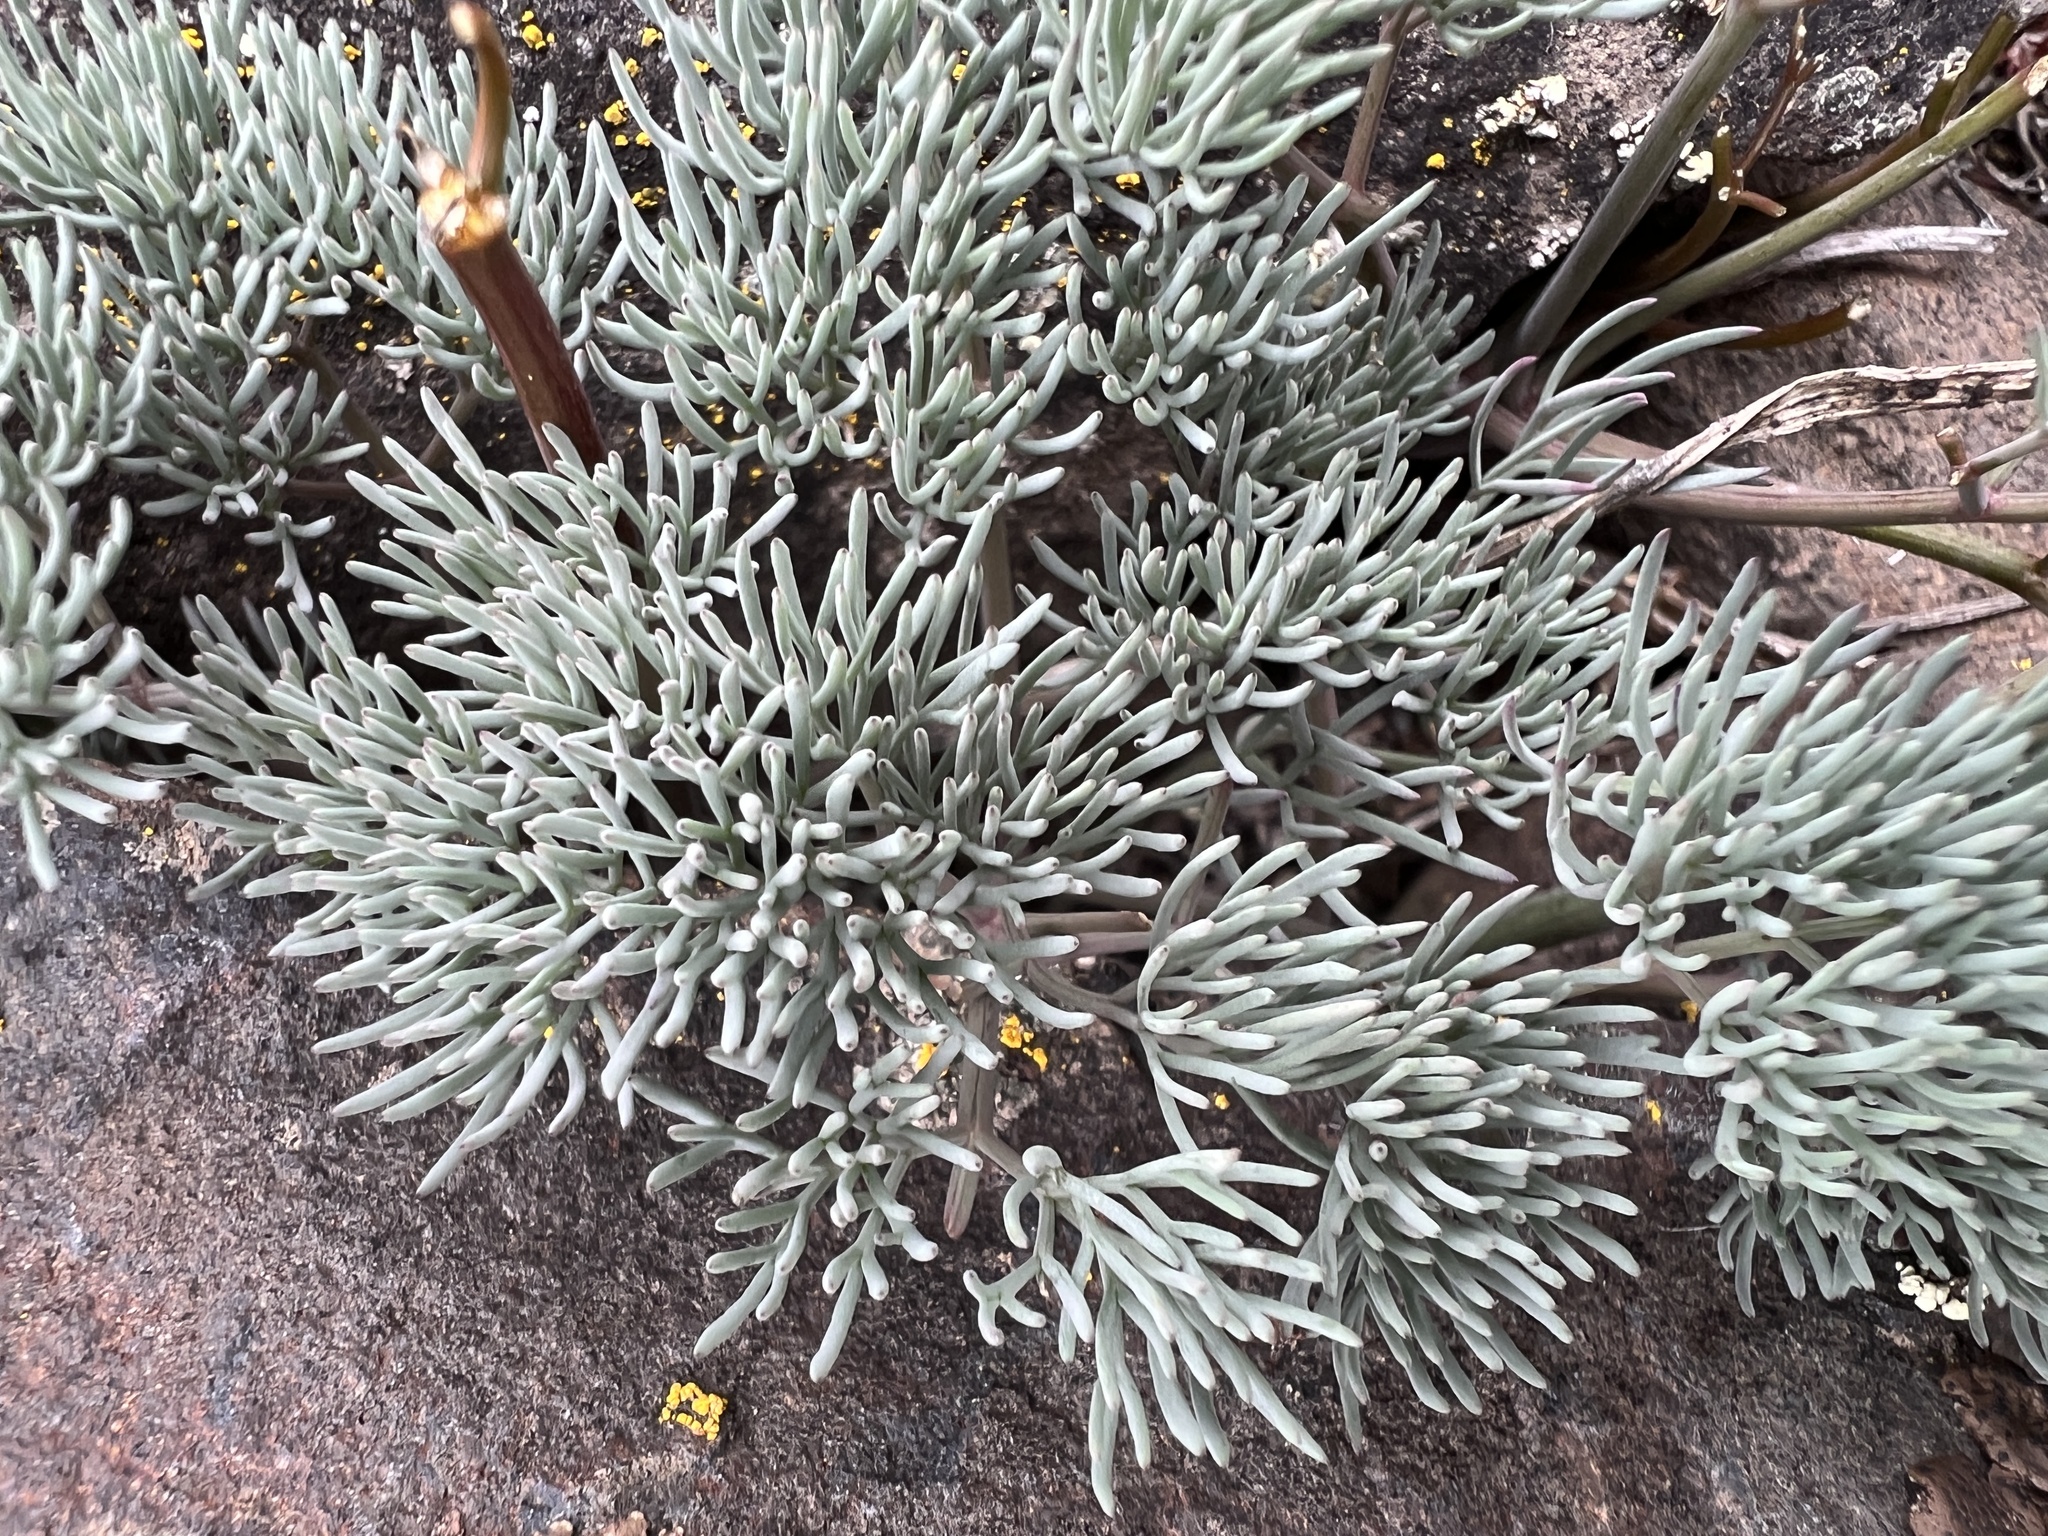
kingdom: Plantae
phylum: Tracheophyta
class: Magnoliopsida
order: Apiales
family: Apiaceae
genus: Lomatium
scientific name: Lomatium tuberosum
